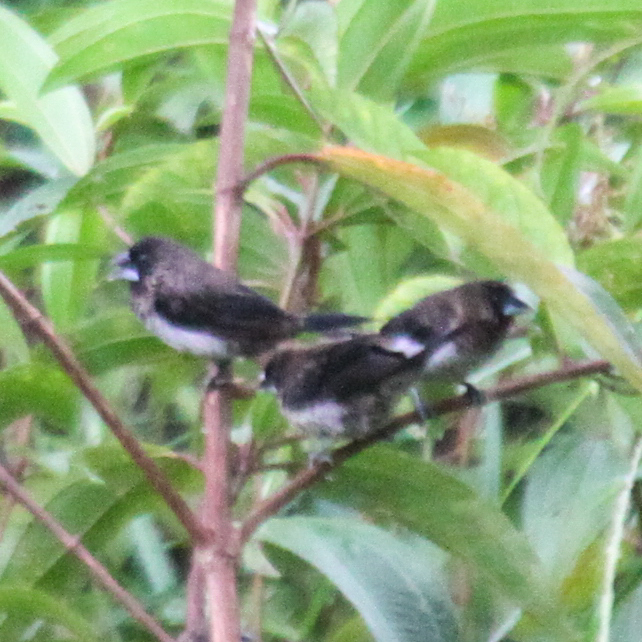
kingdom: Animalia
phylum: Chordata
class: Aves
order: Passeriformes
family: Estrildidae
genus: Lonchura
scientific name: Lonchura striata
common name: White-rumped munia
